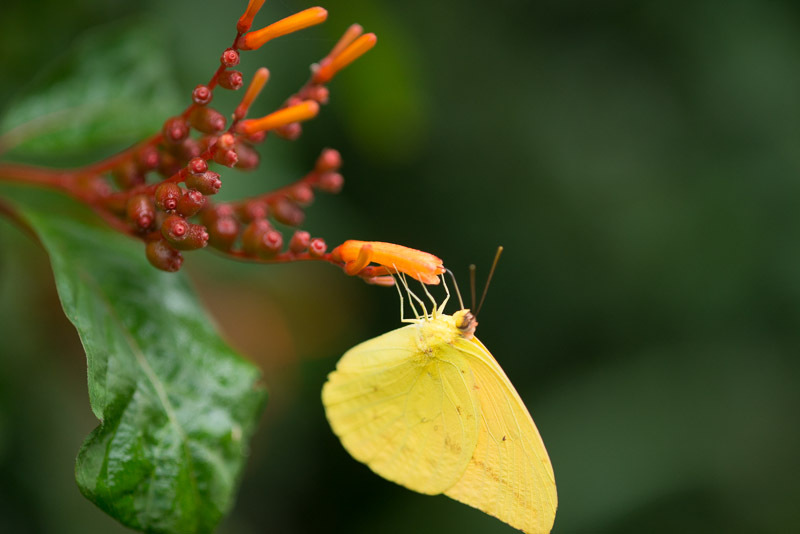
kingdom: Animalia
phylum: Arthropoda
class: Insecta
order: Lepidoptera
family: Pieridae
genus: Phoebis
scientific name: Phoebis agarithe
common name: Large orange sulphur
